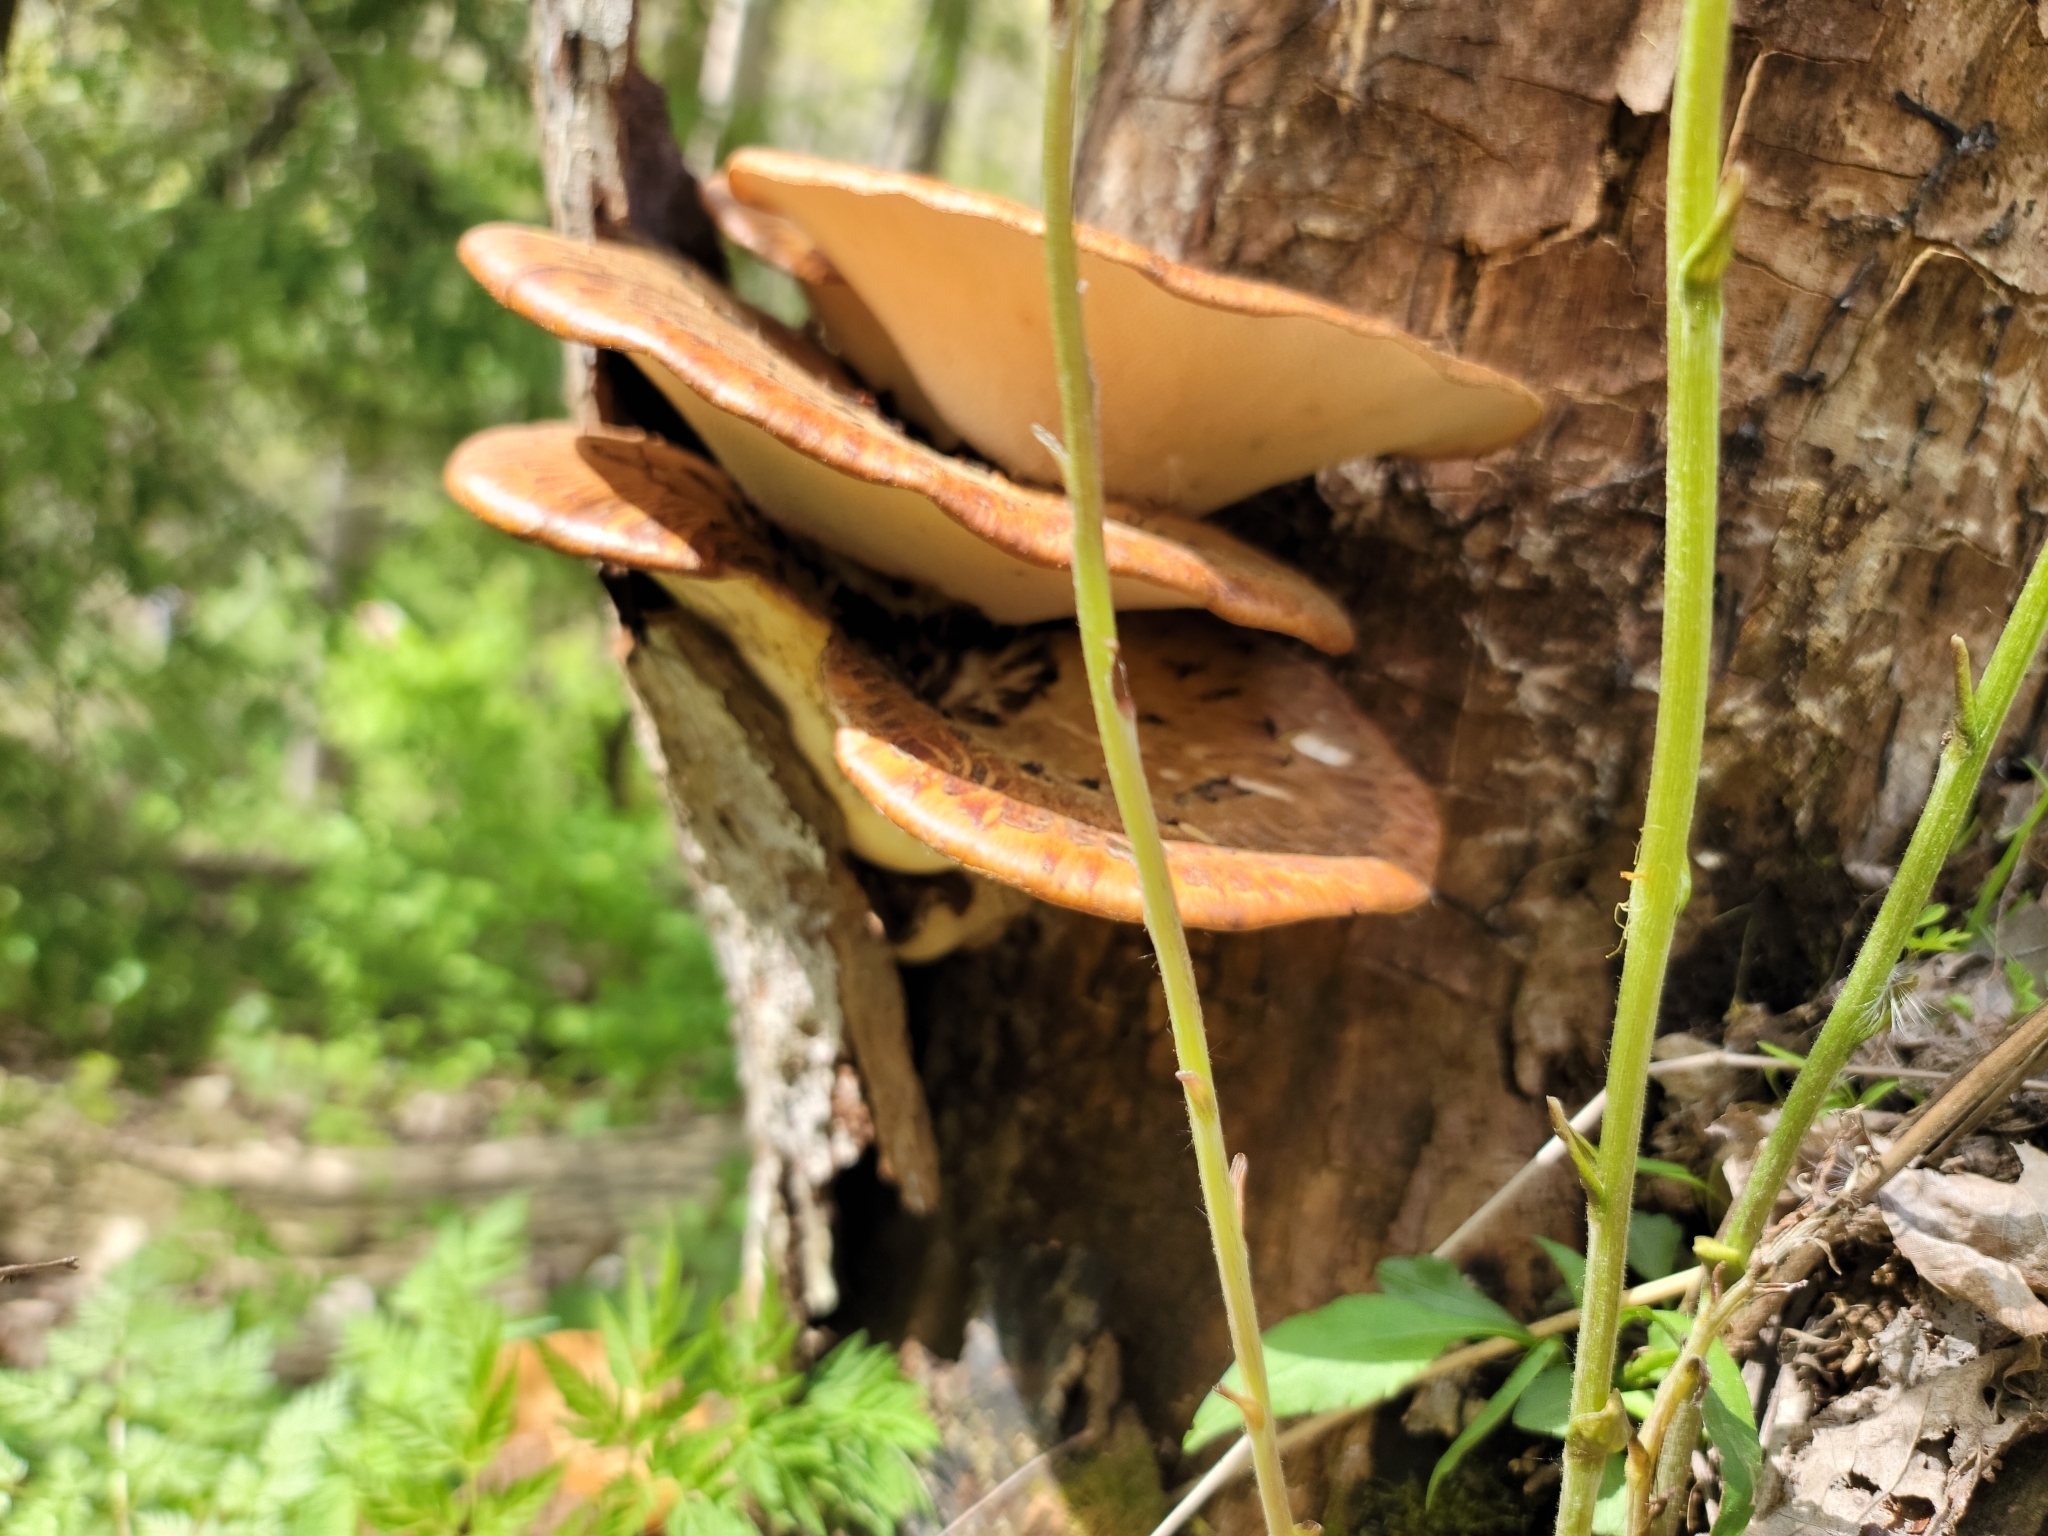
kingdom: Fungi
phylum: Basidiomycota
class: Agaricomycetes
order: Polyporales
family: Polyporaceae
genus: Cerioporus
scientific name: Cerioporus squamosus
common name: Dryad's saddle
